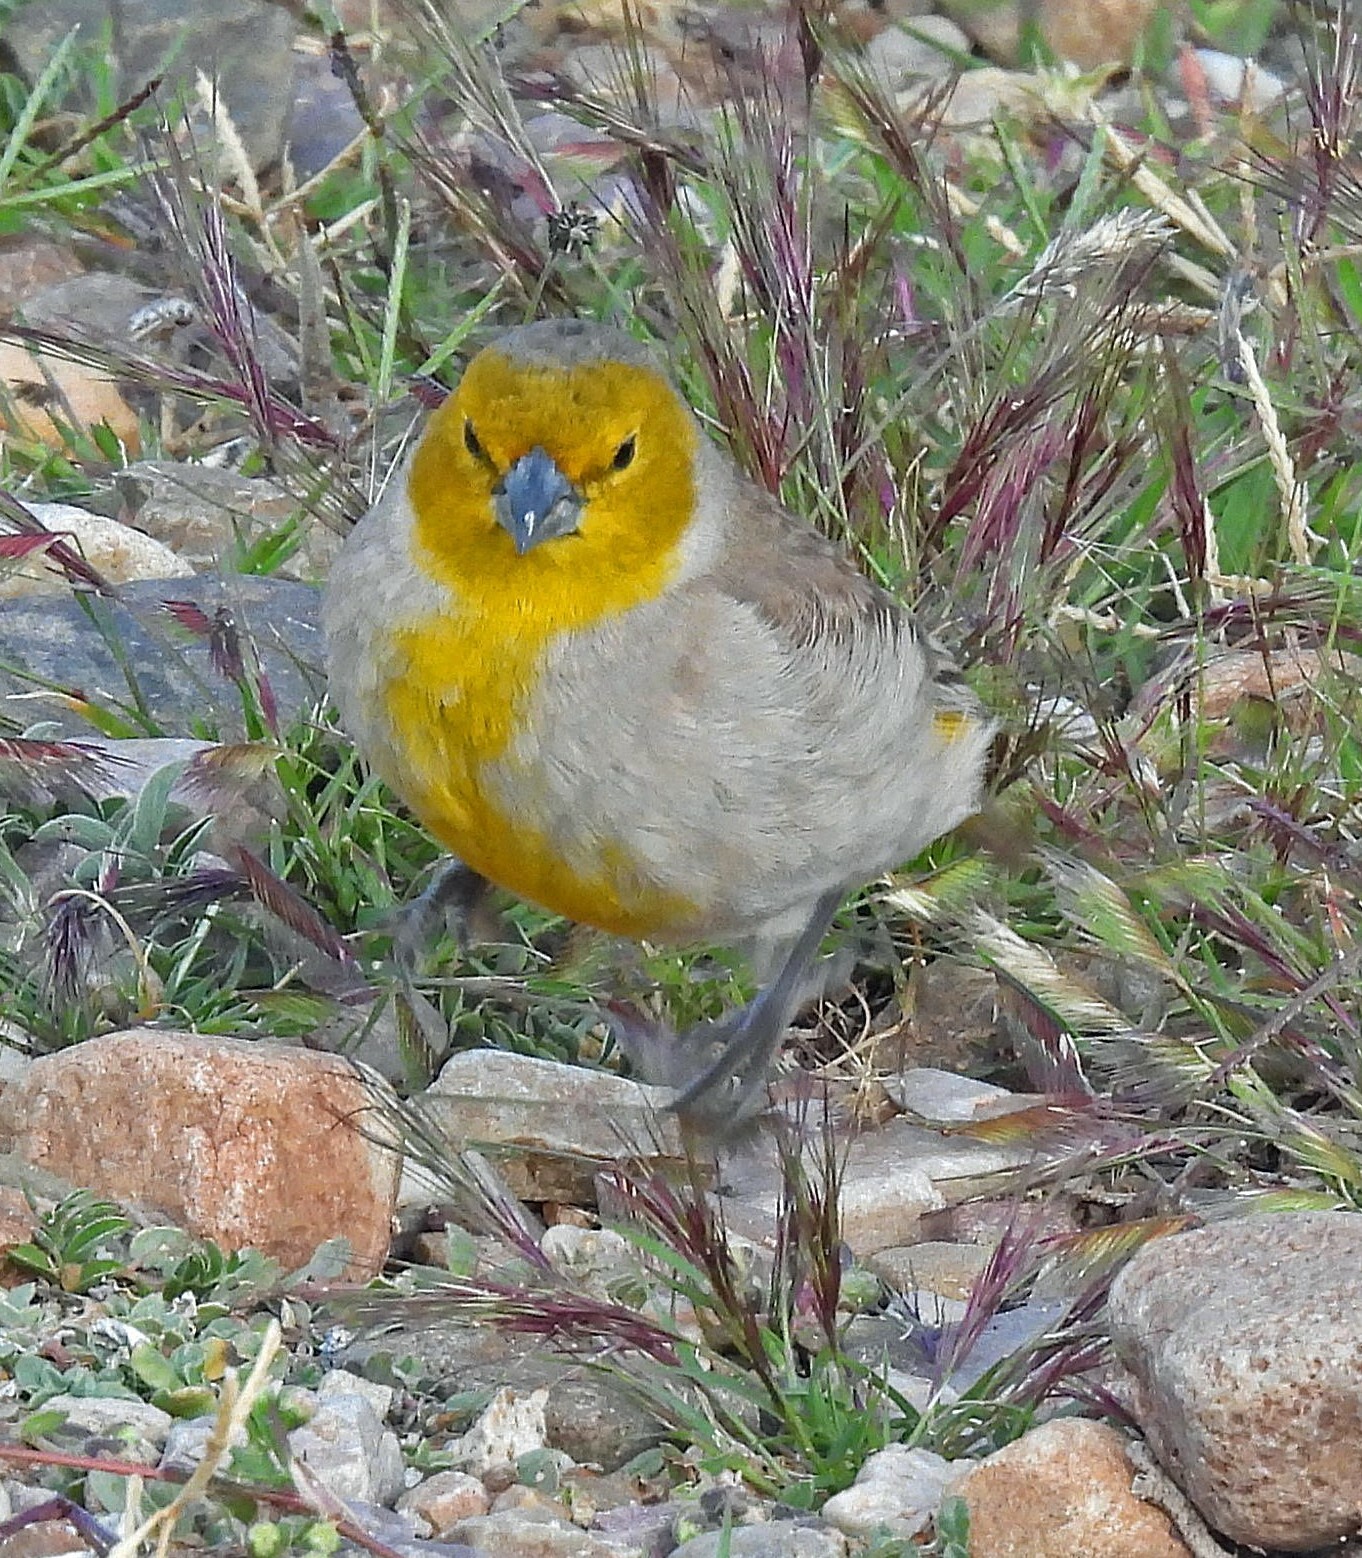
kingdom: Animalia
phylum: Chordata
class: Aves
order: Passeriformes
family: Thraupidae
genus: Sicalis
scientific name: Sicalis luteocephala
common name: Citron-headed yellow finch
